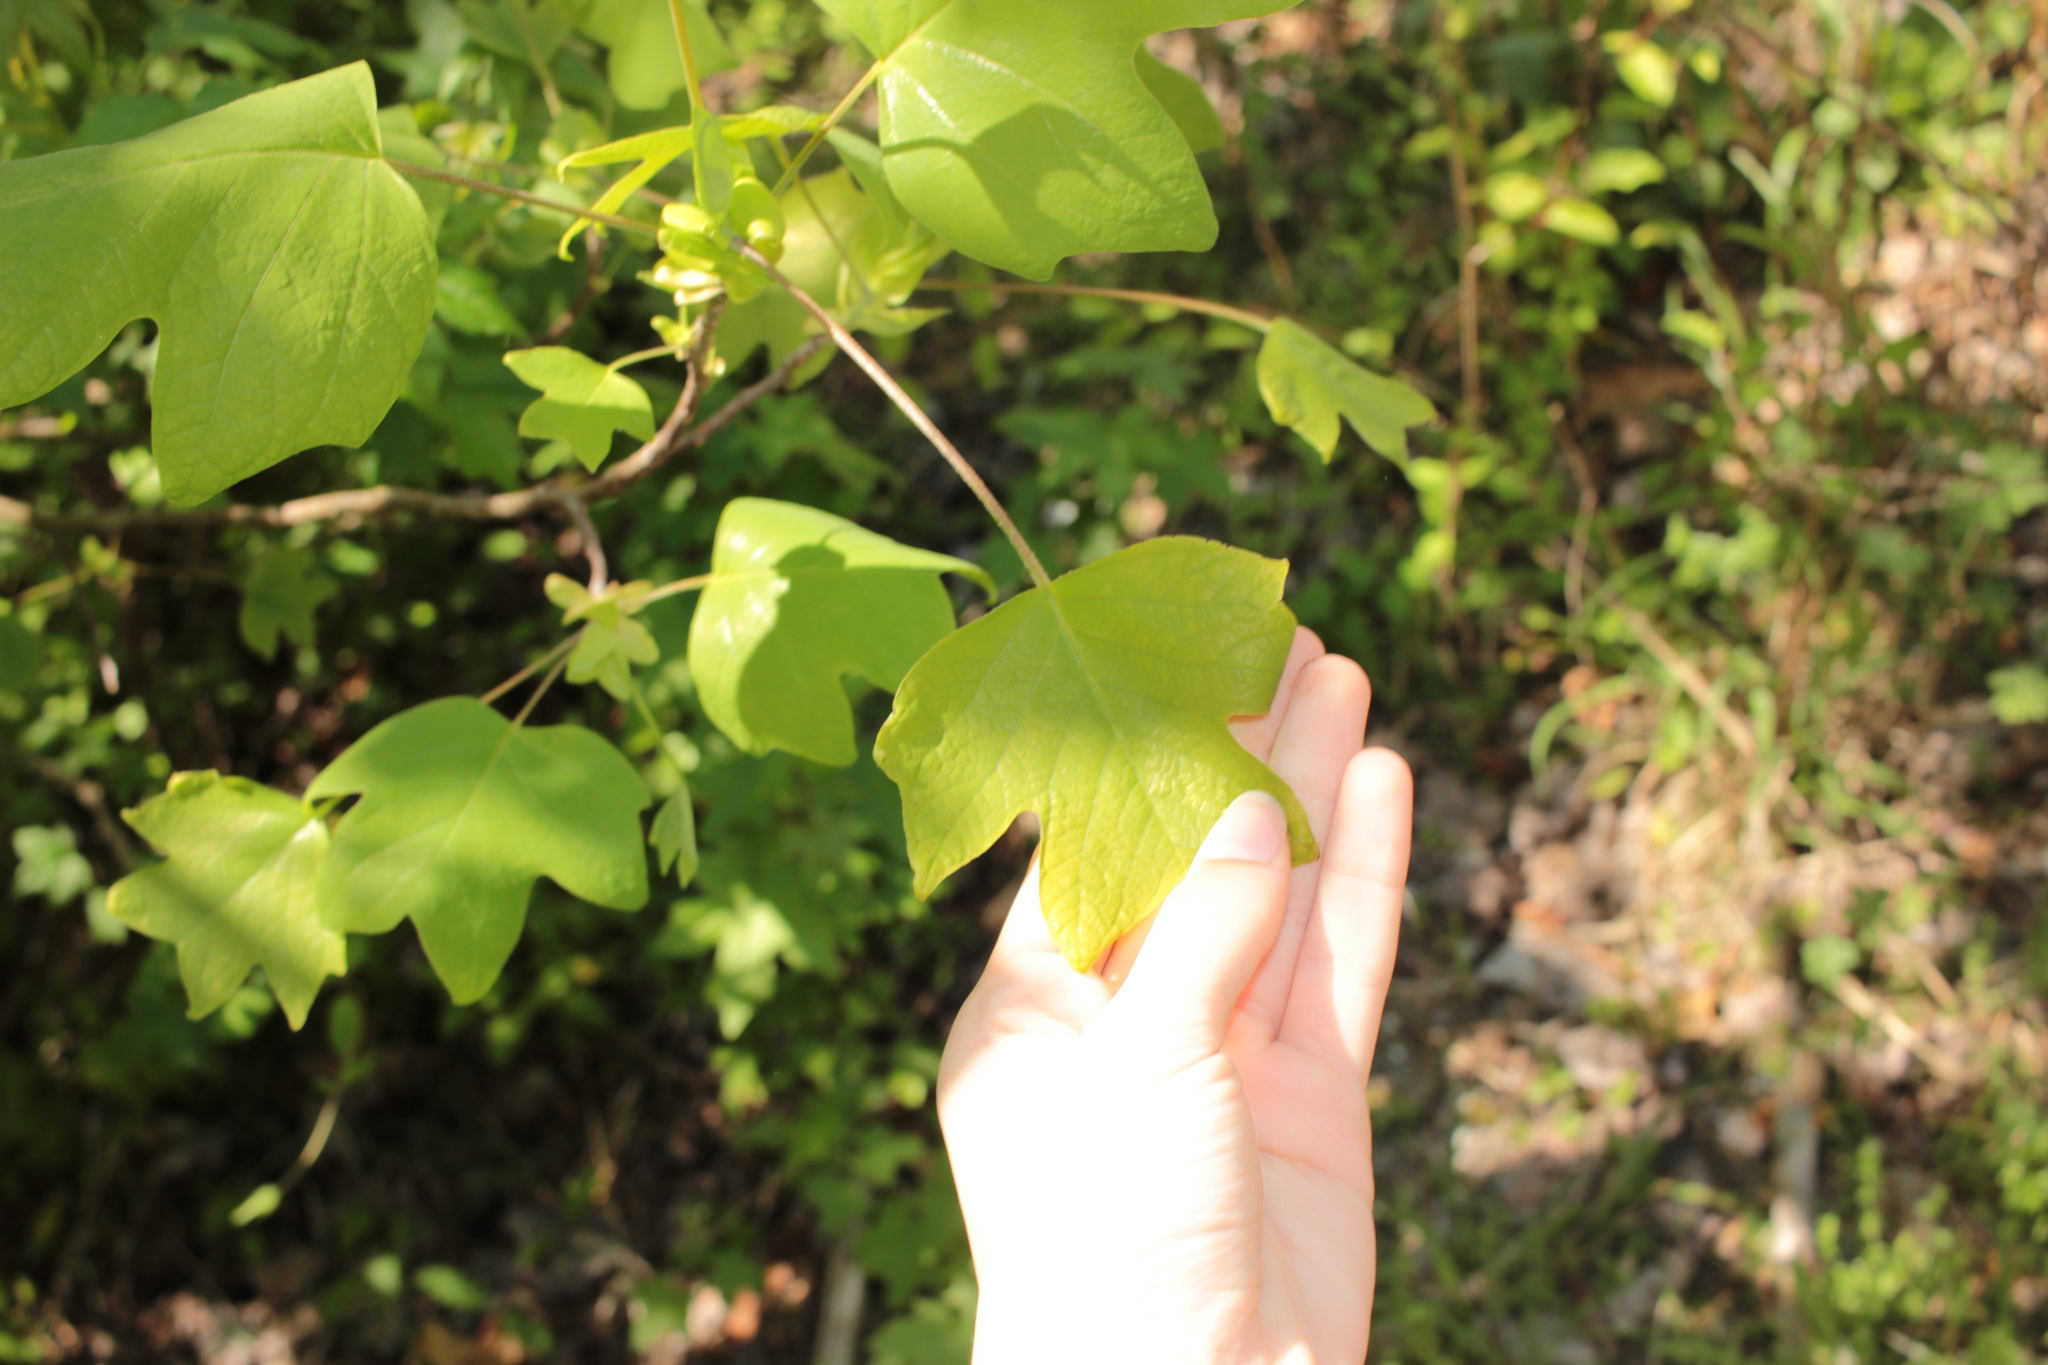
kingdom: Plantae
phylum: Tracheophyta
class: Magnoliopsida
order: Magnoliales
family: Magnoliaceae
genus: Liriodendron
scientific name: Liriodendron tulipifera
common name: Tulip tree
